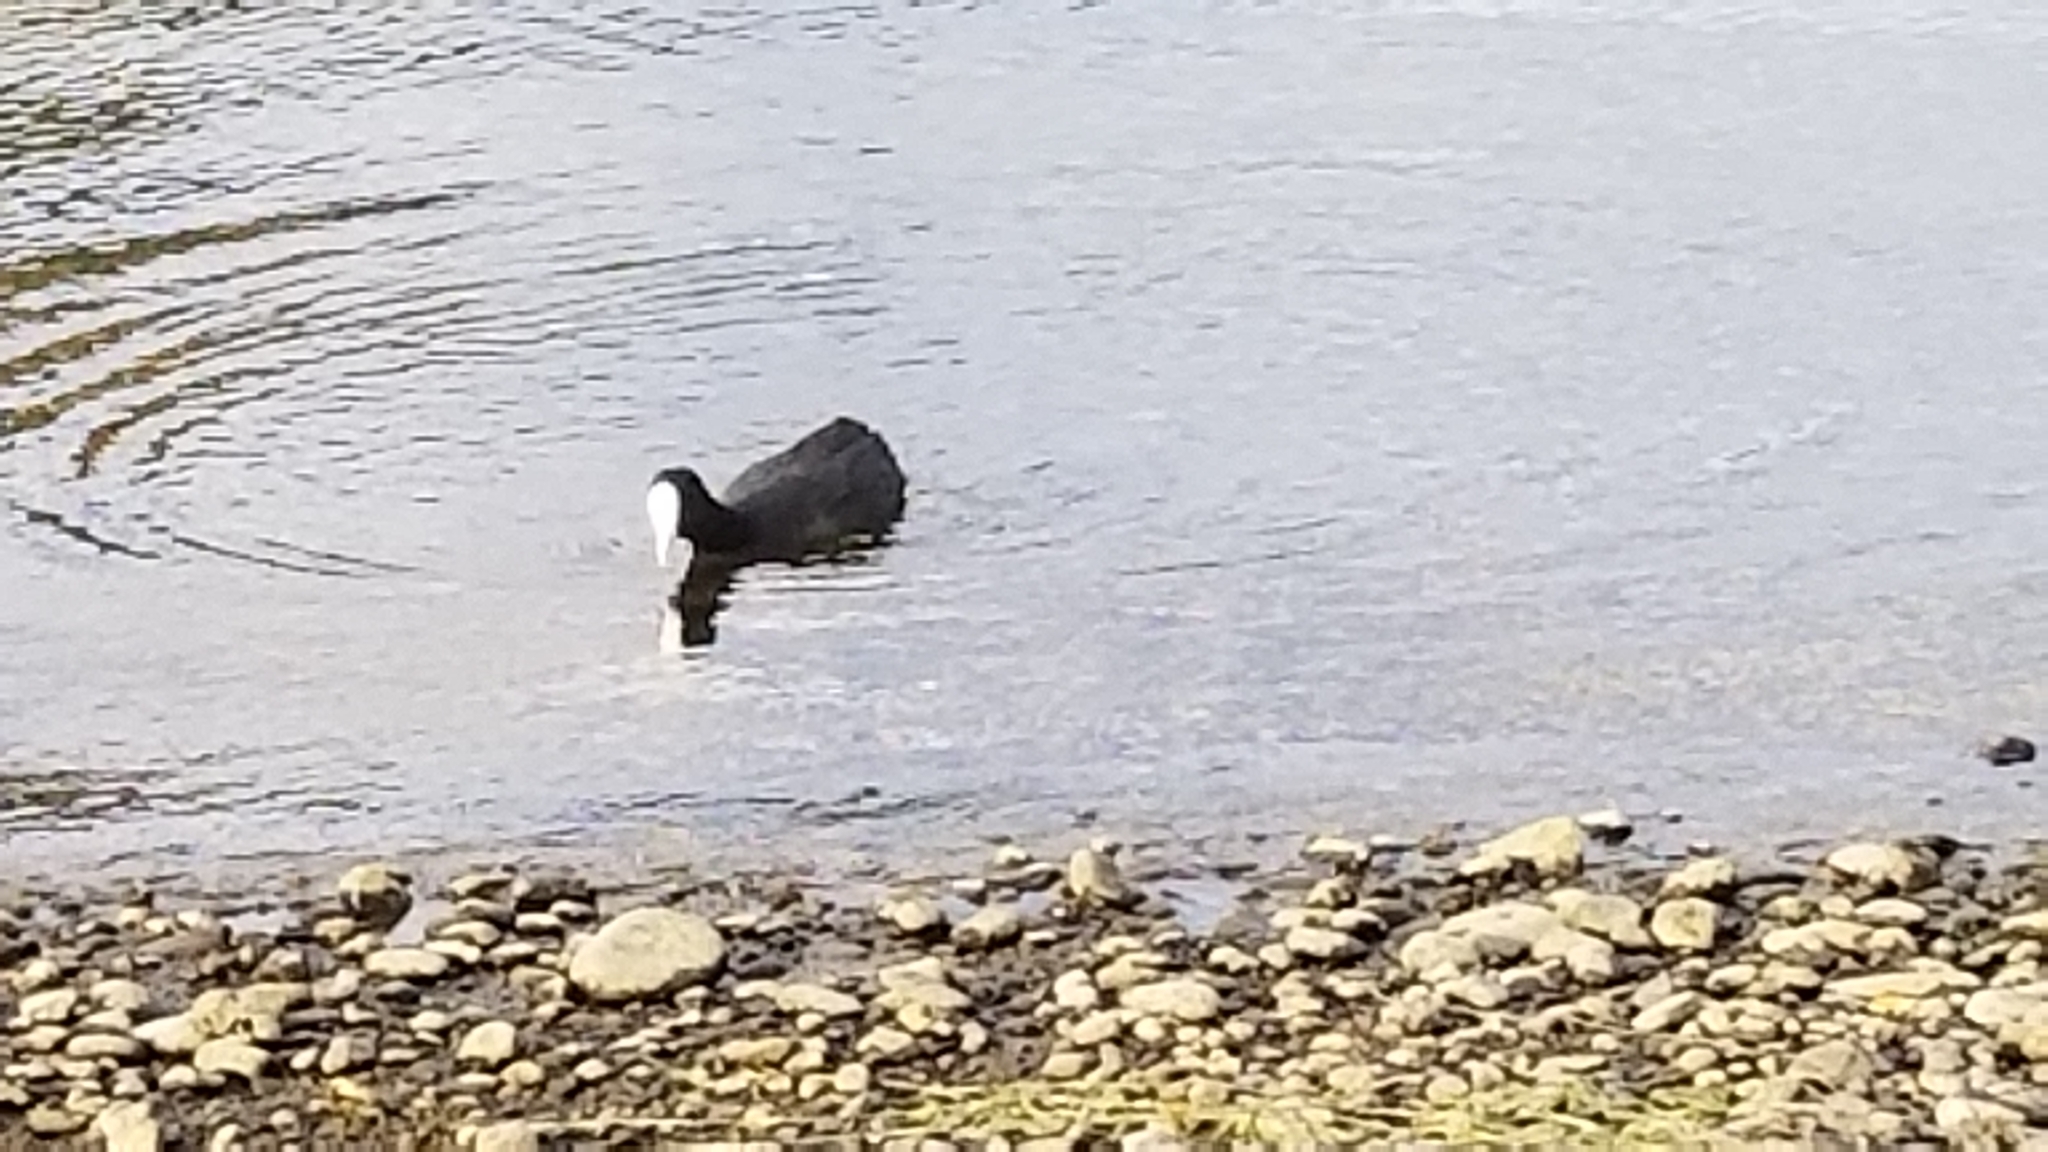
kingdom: Animalia
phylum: Chordata
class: Aves
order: Gruiformes
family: Rallidae
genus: Fulica
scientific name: Fulica atra
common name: Eurasian coot
